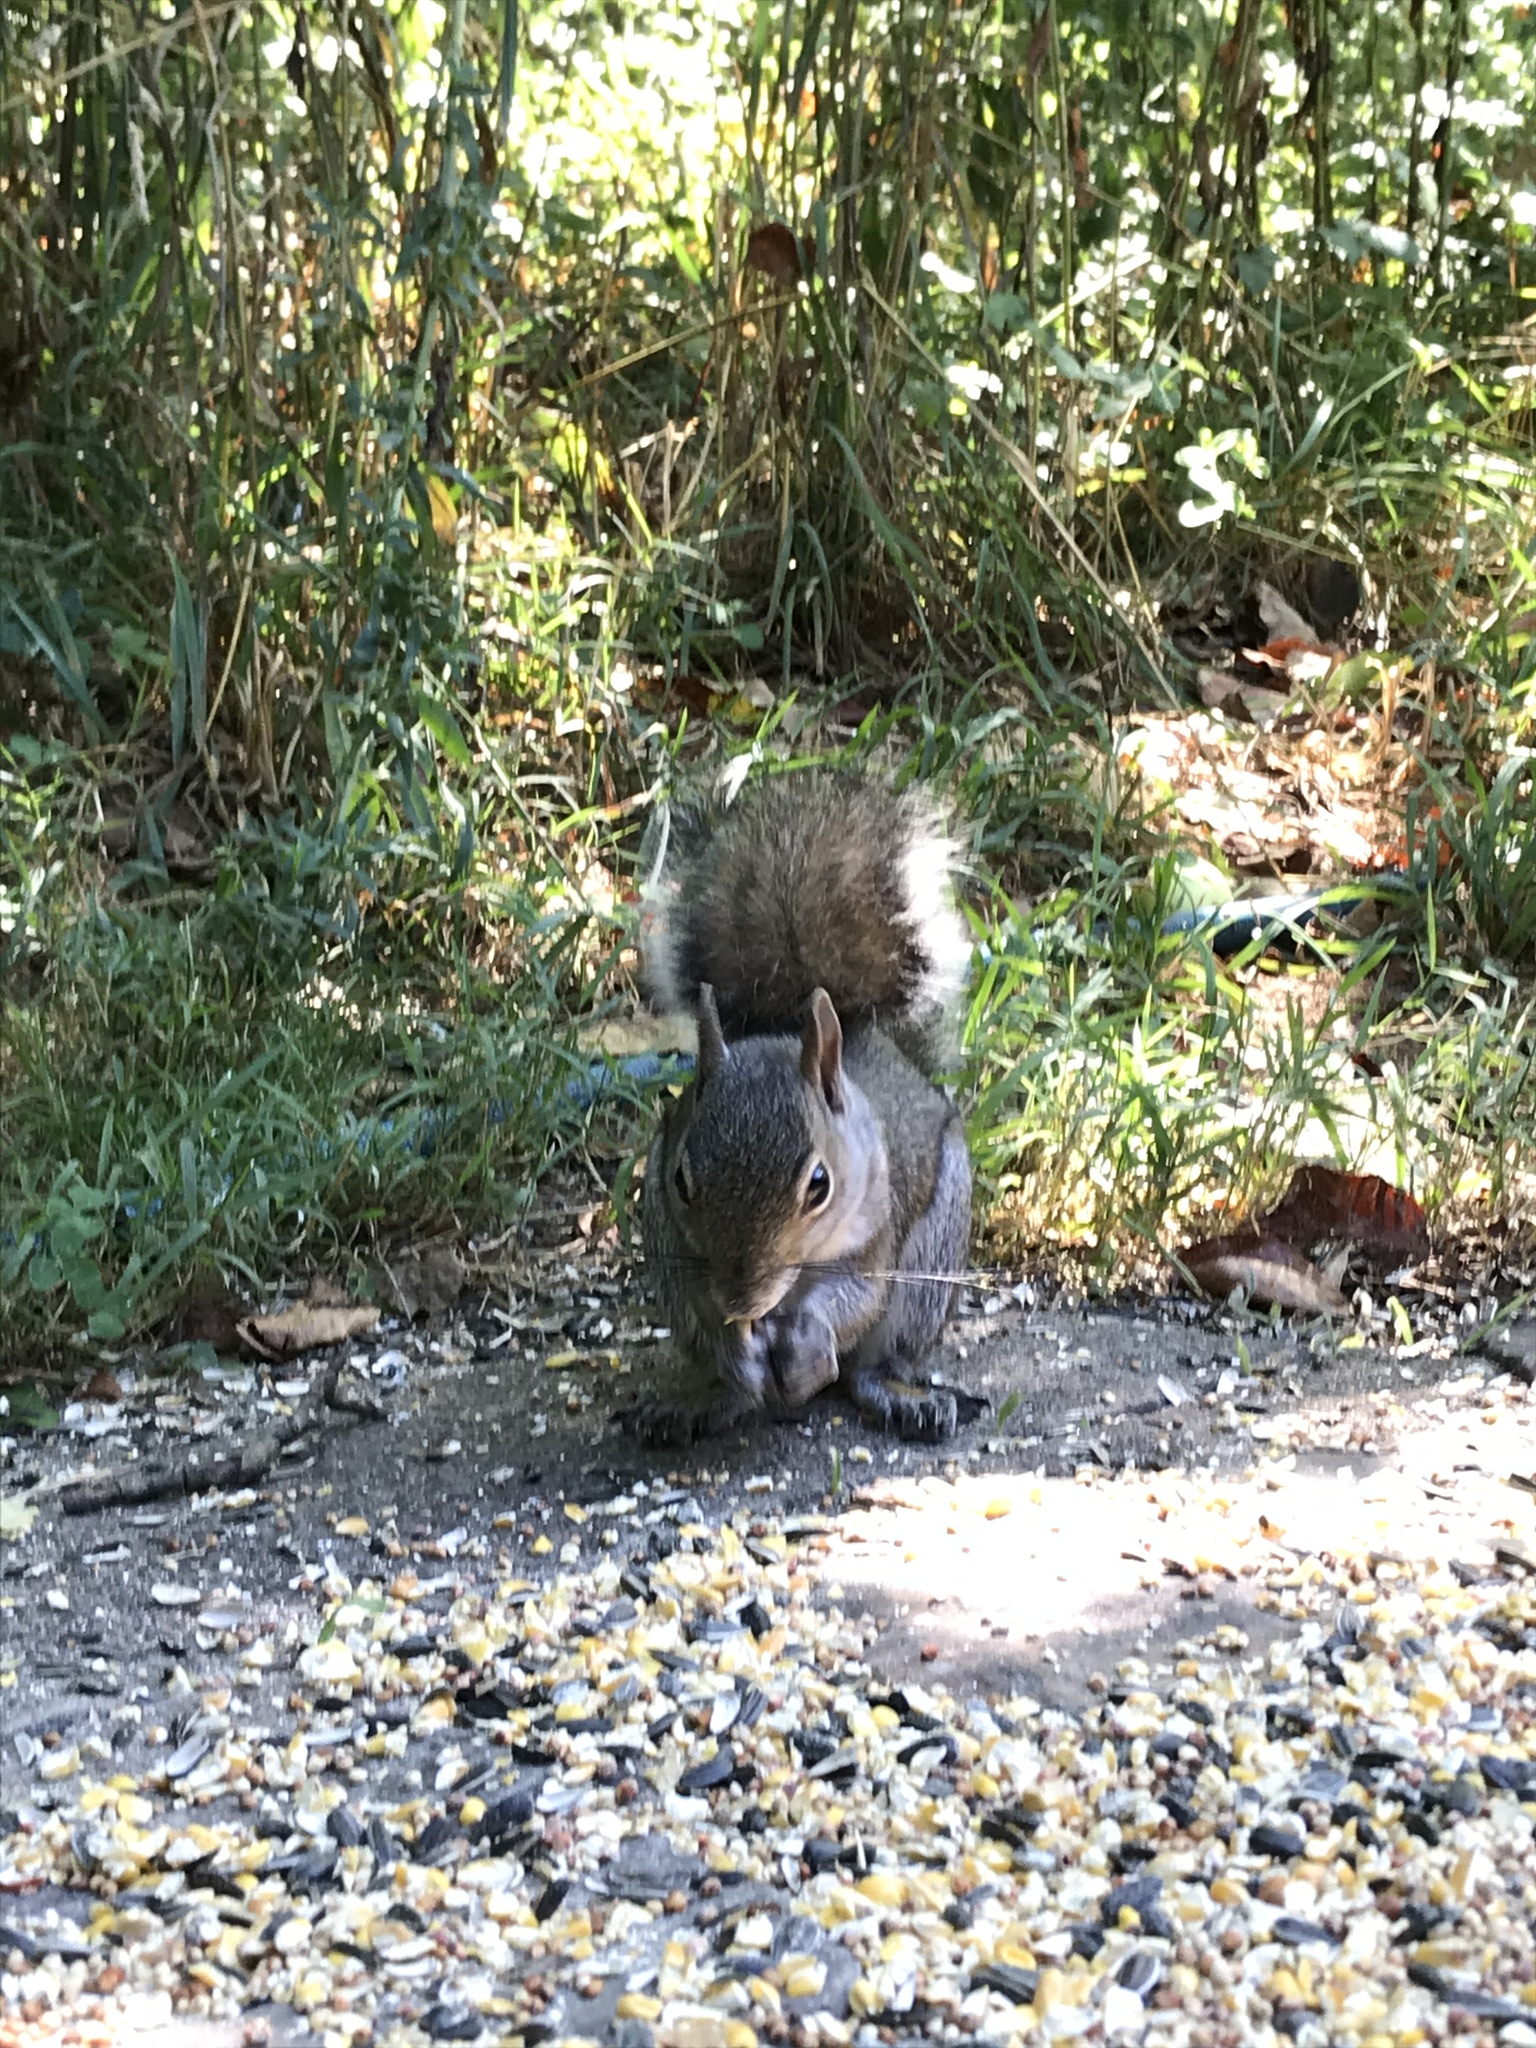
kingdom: Animalia
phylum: Chordata
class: Mammalia
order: Rodentia
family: Sciuridae
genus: Sciurus
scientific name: Sciurus carolinensis
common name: Eastern gray squirrel
